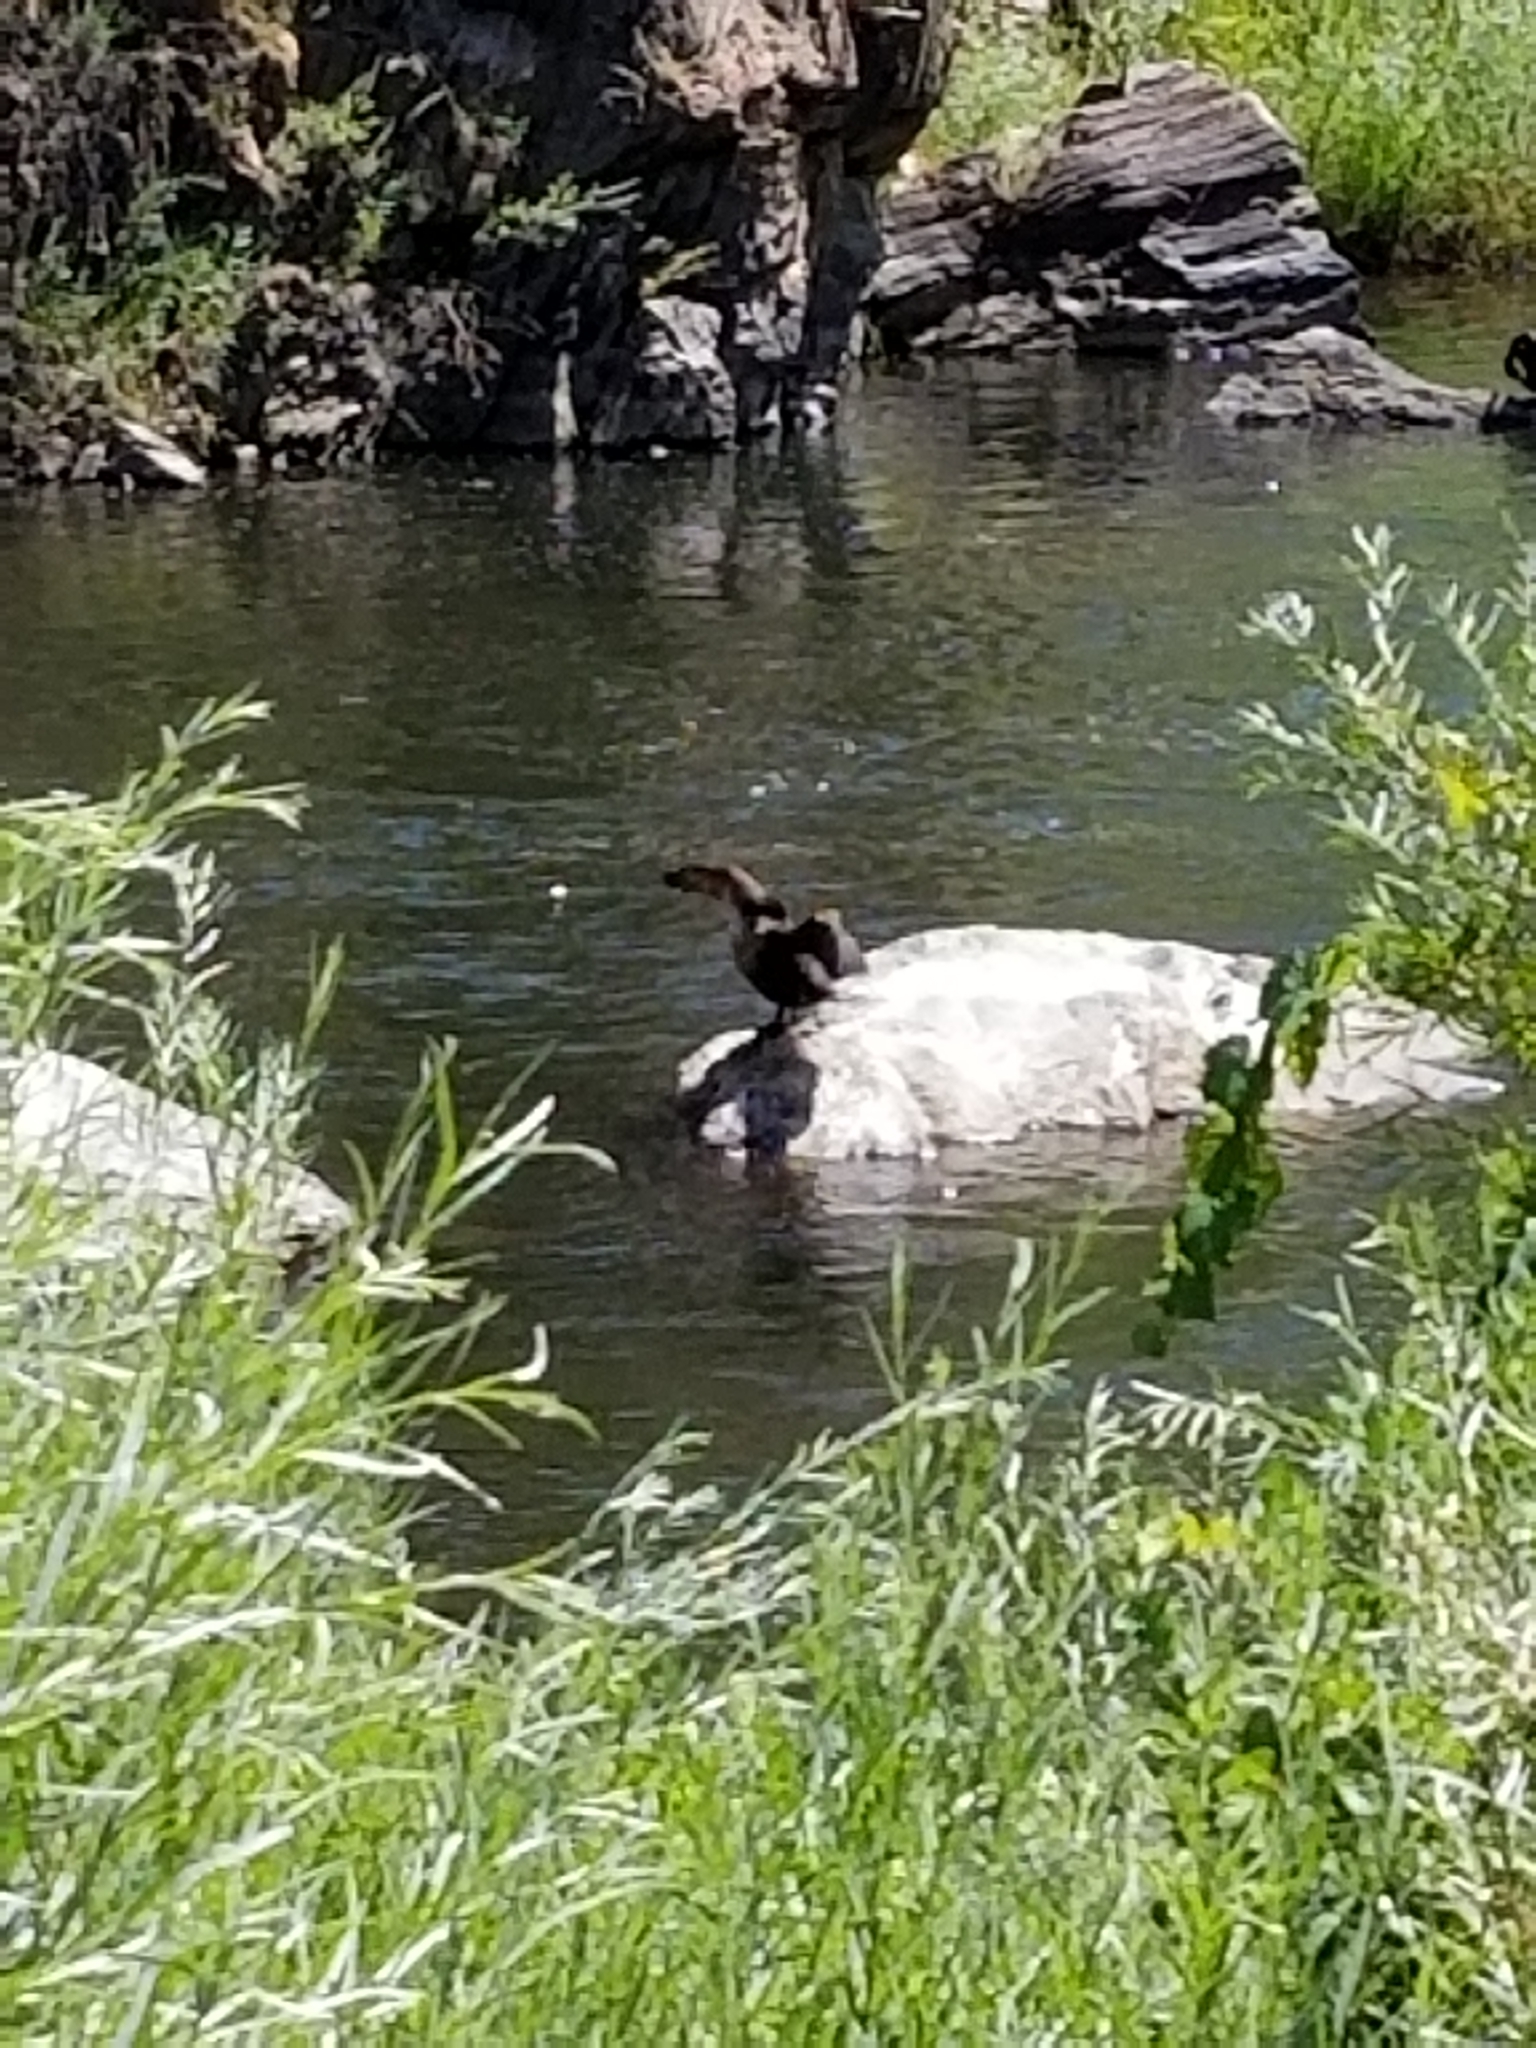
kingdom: Animalia
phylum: Chordata
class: Aves
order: Suliformes
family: Phalacrocoracidae
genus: Phalacrocorax
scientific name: Phalacrocorax auritus
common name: Double-crested cormorant
